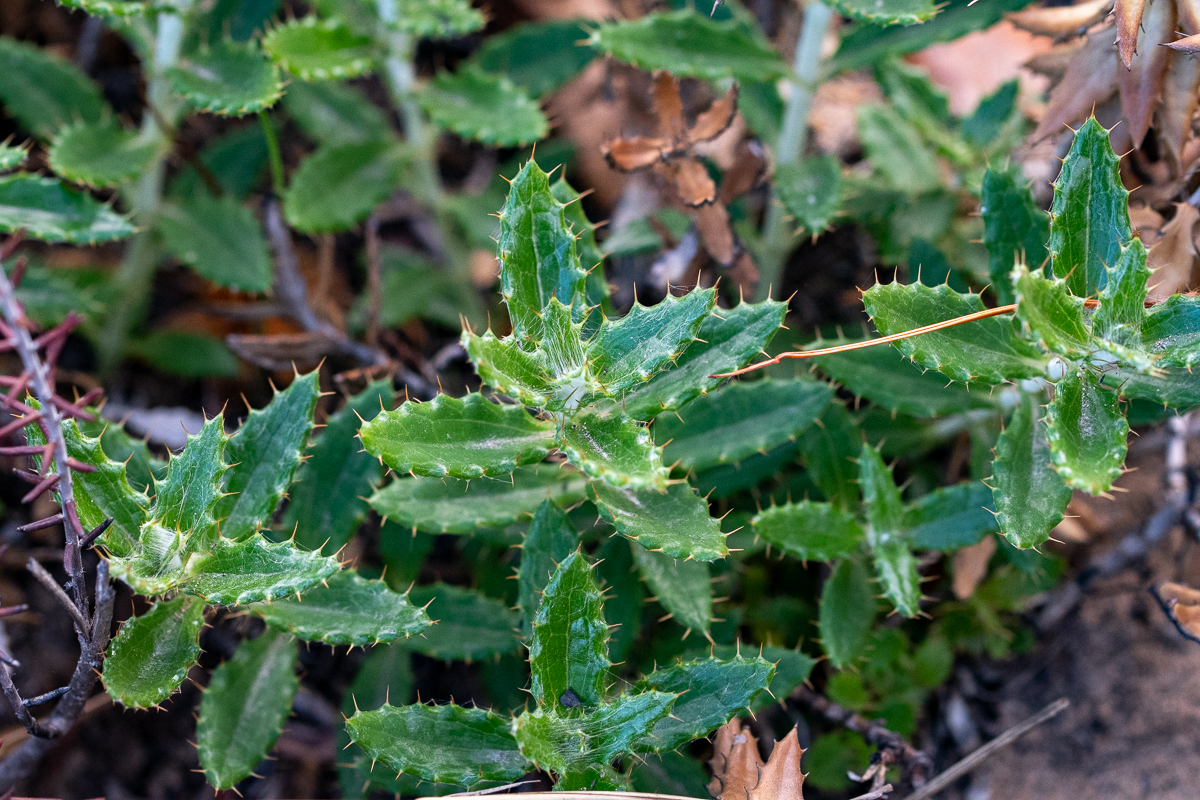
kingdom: Plantae
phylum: Tracheophyta
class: Magnoliopsida
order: Asterales
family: Asteraceae
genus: Berkheya
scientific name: Berkheya barbata
